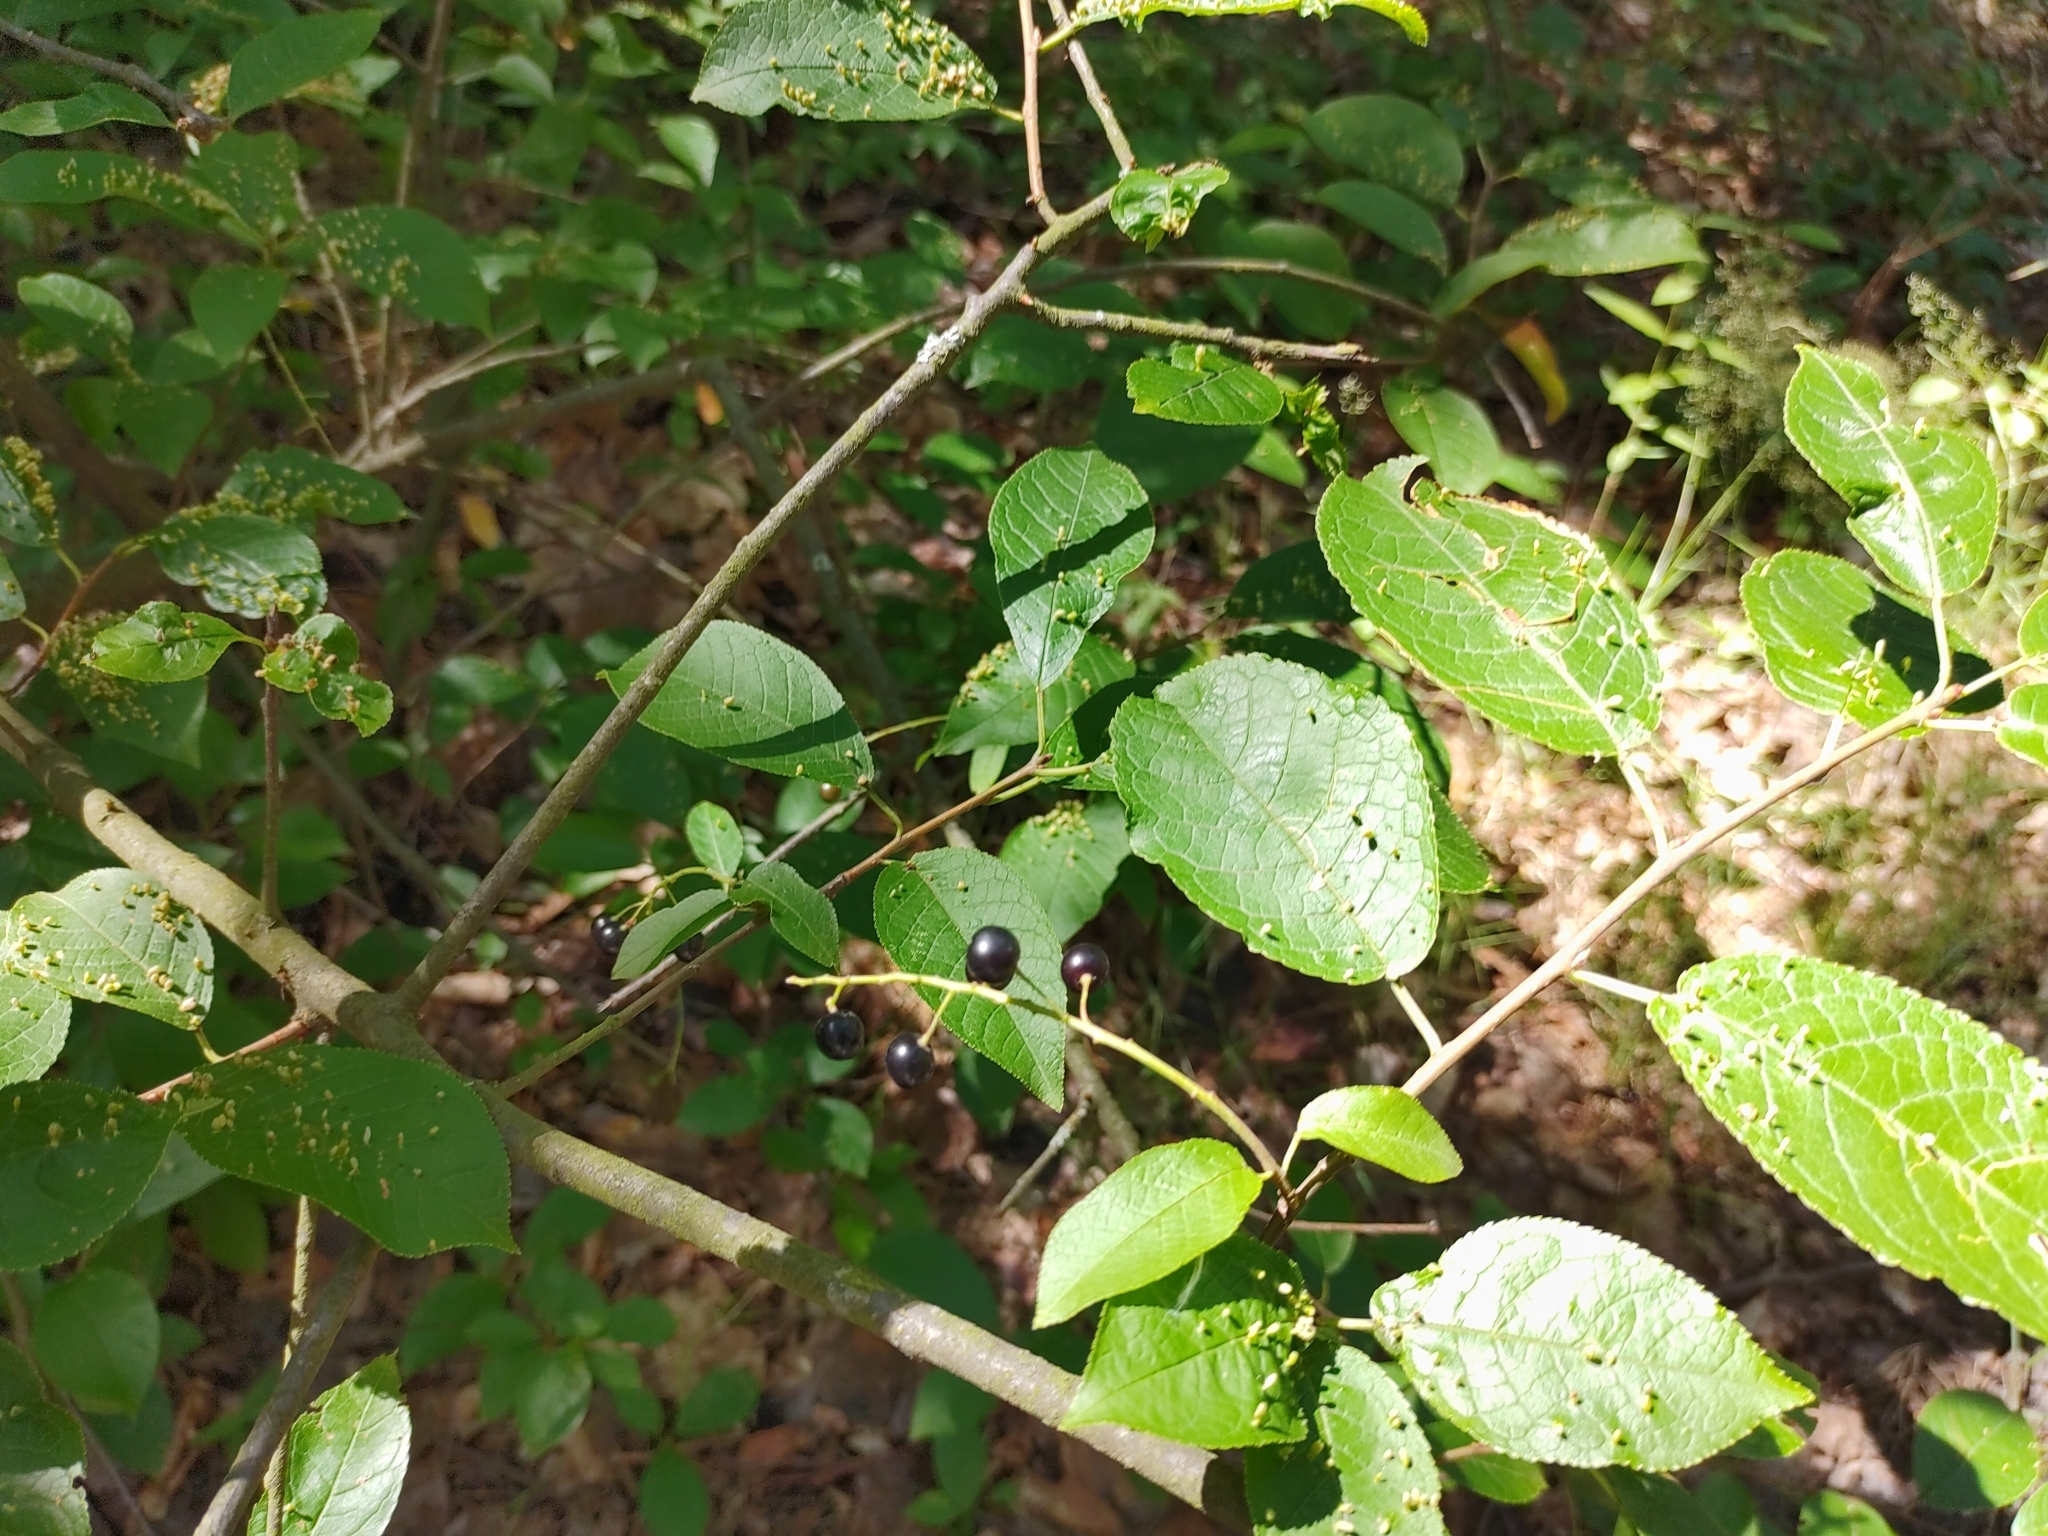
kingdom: Plantae
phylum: Tracheophyta
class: Magnoliopsida
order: Rosales
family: Rosaceae
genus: Prunus
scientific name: Prunus padus
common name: Bird cherry
